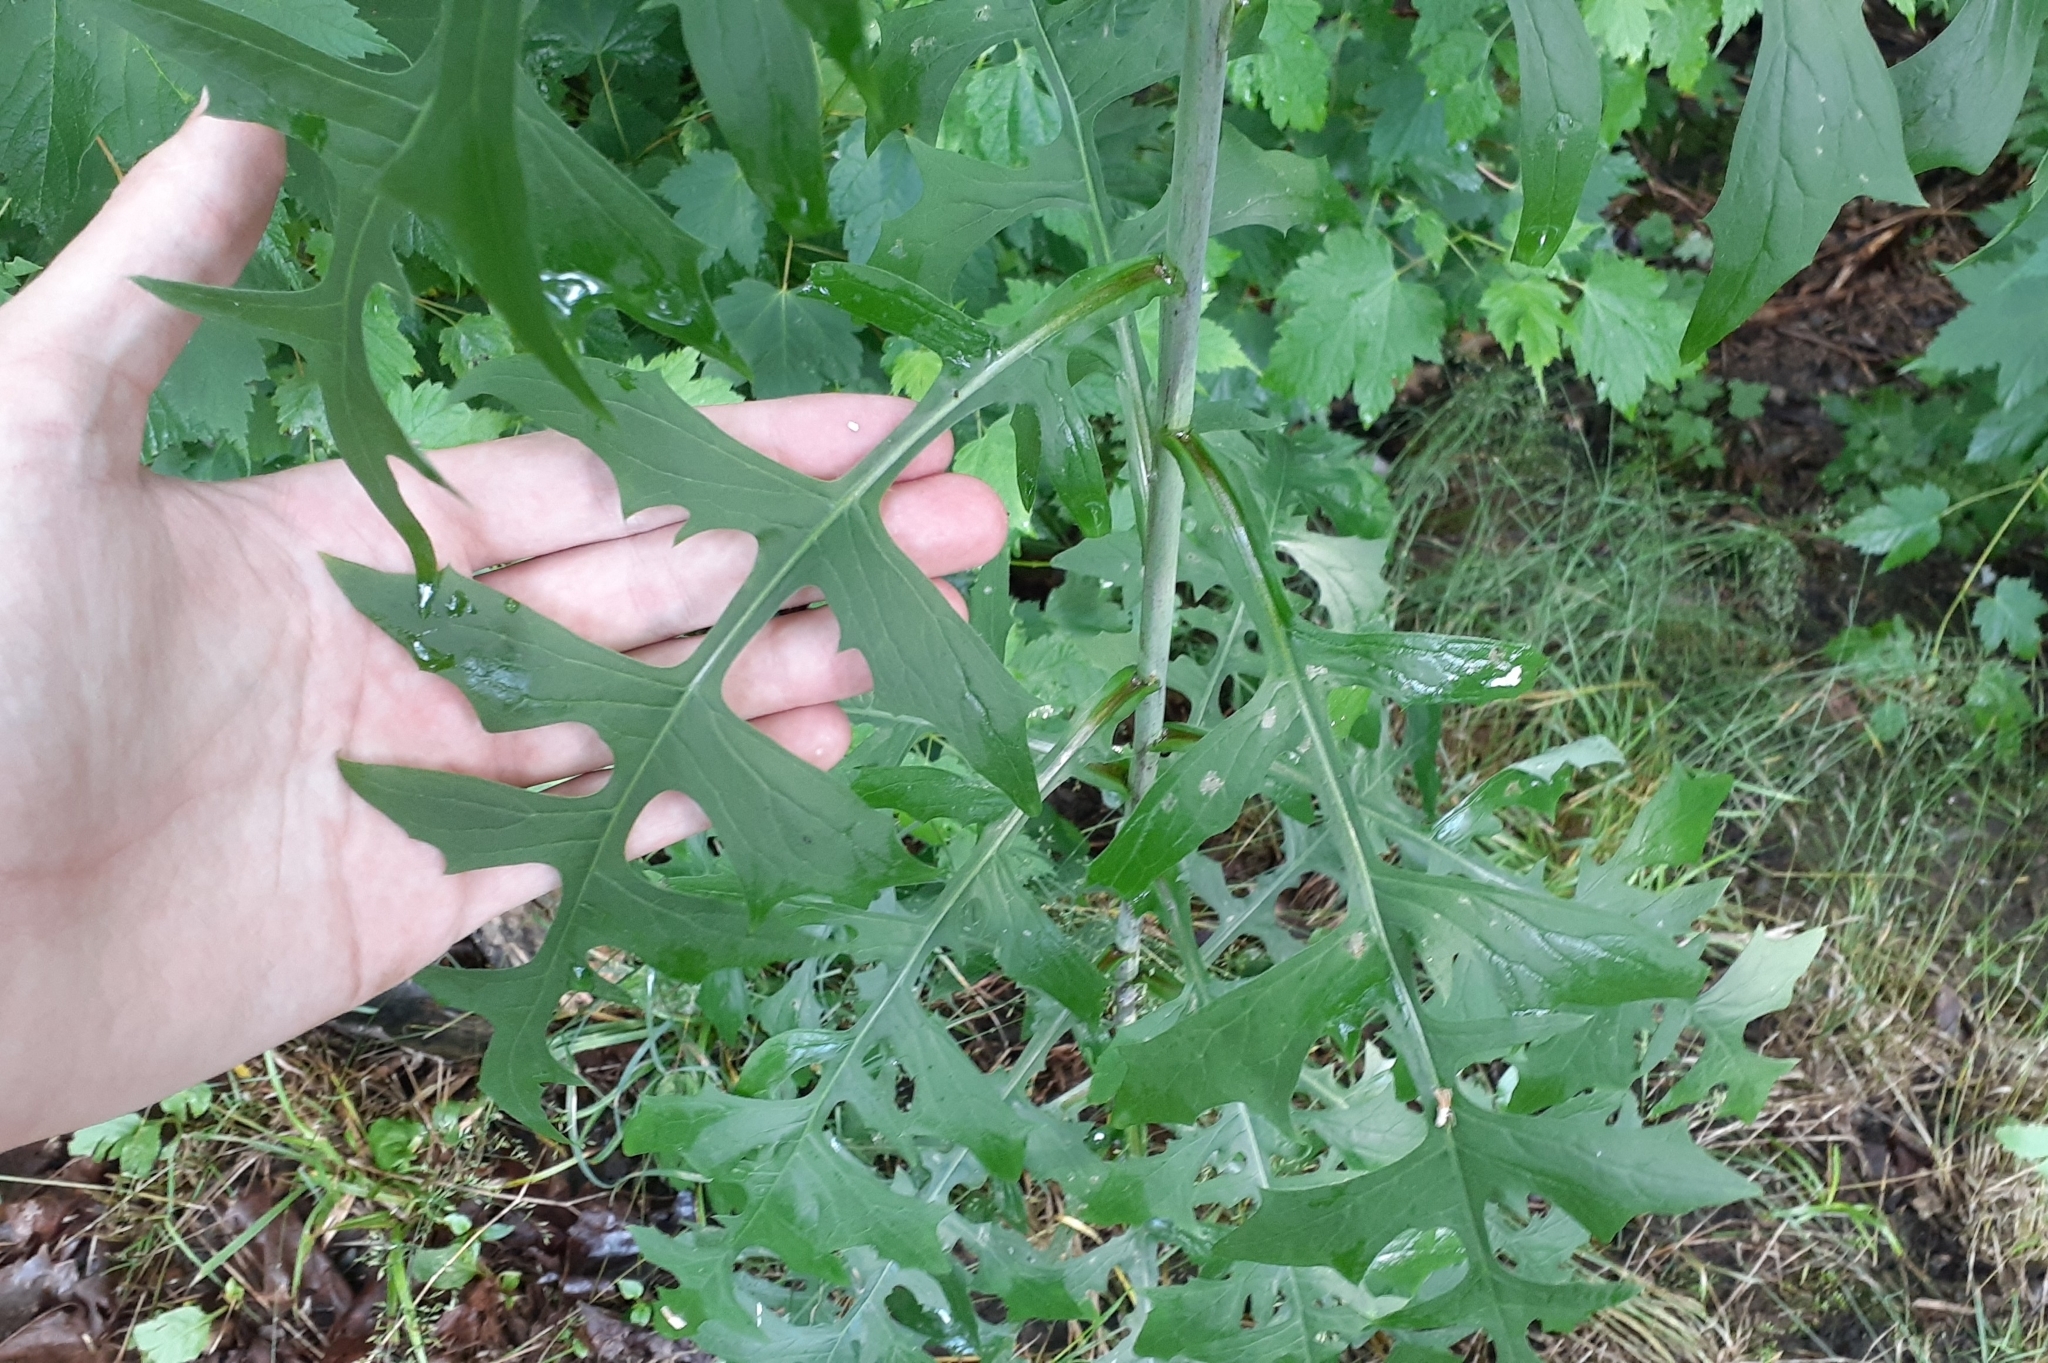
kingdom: Plantae
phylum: Tracheophyta
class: Magnoliopsida
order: Asterales
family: Asteraceae
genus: Lactuca
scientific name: Lactuca biennis
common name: Blue wood lettuce
